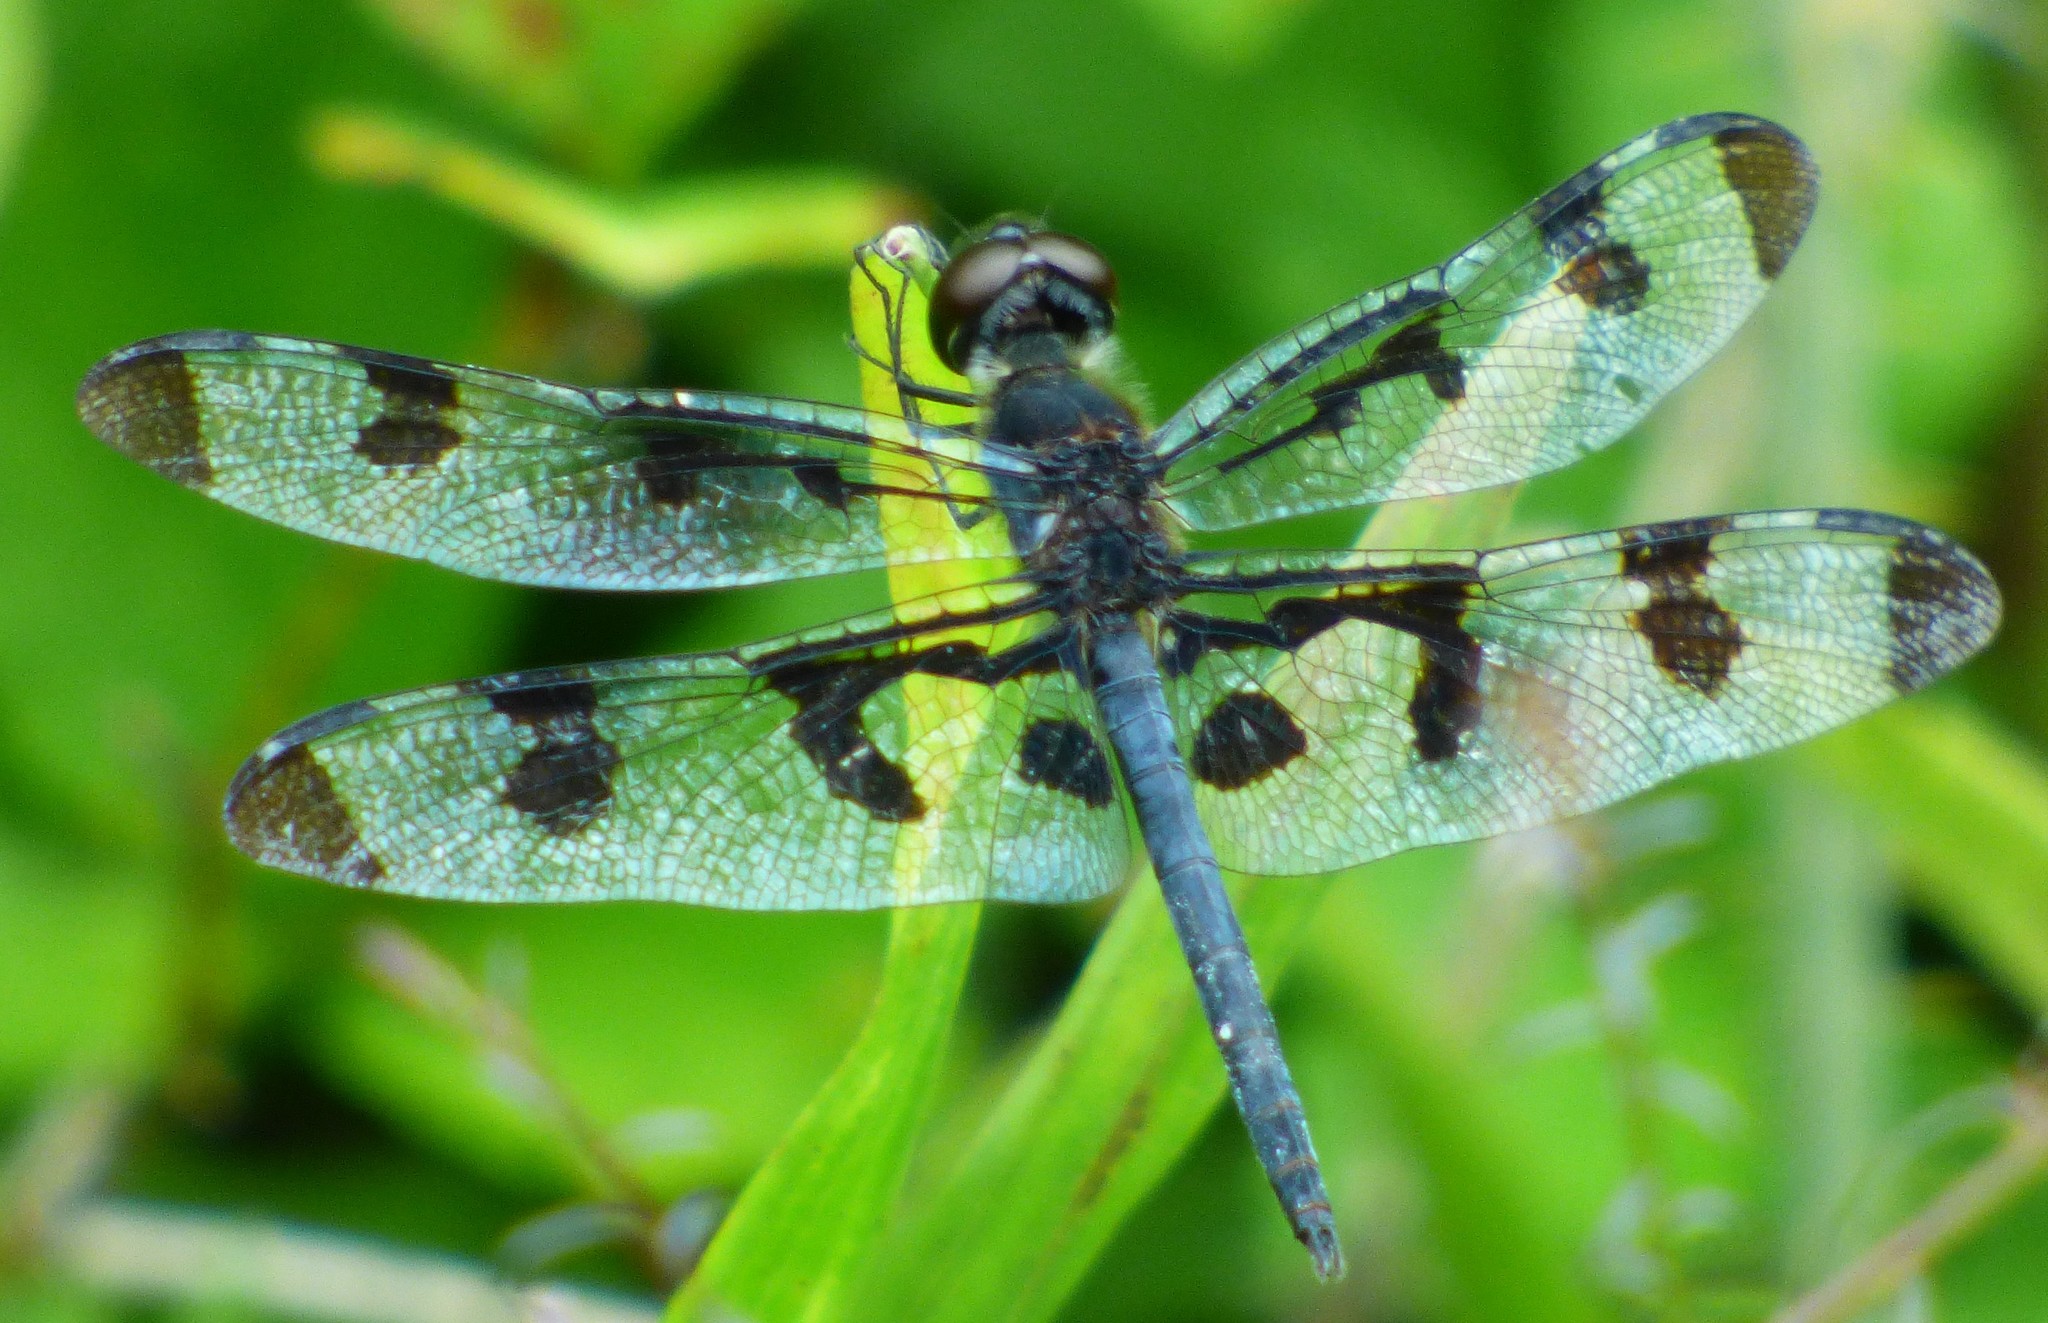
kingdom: Animalia
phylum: Arthropoda
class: Insecta
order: Odonata
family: Libellulidae
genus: Celithemis
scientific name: Celithemis fasciata
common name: Banded pennant
